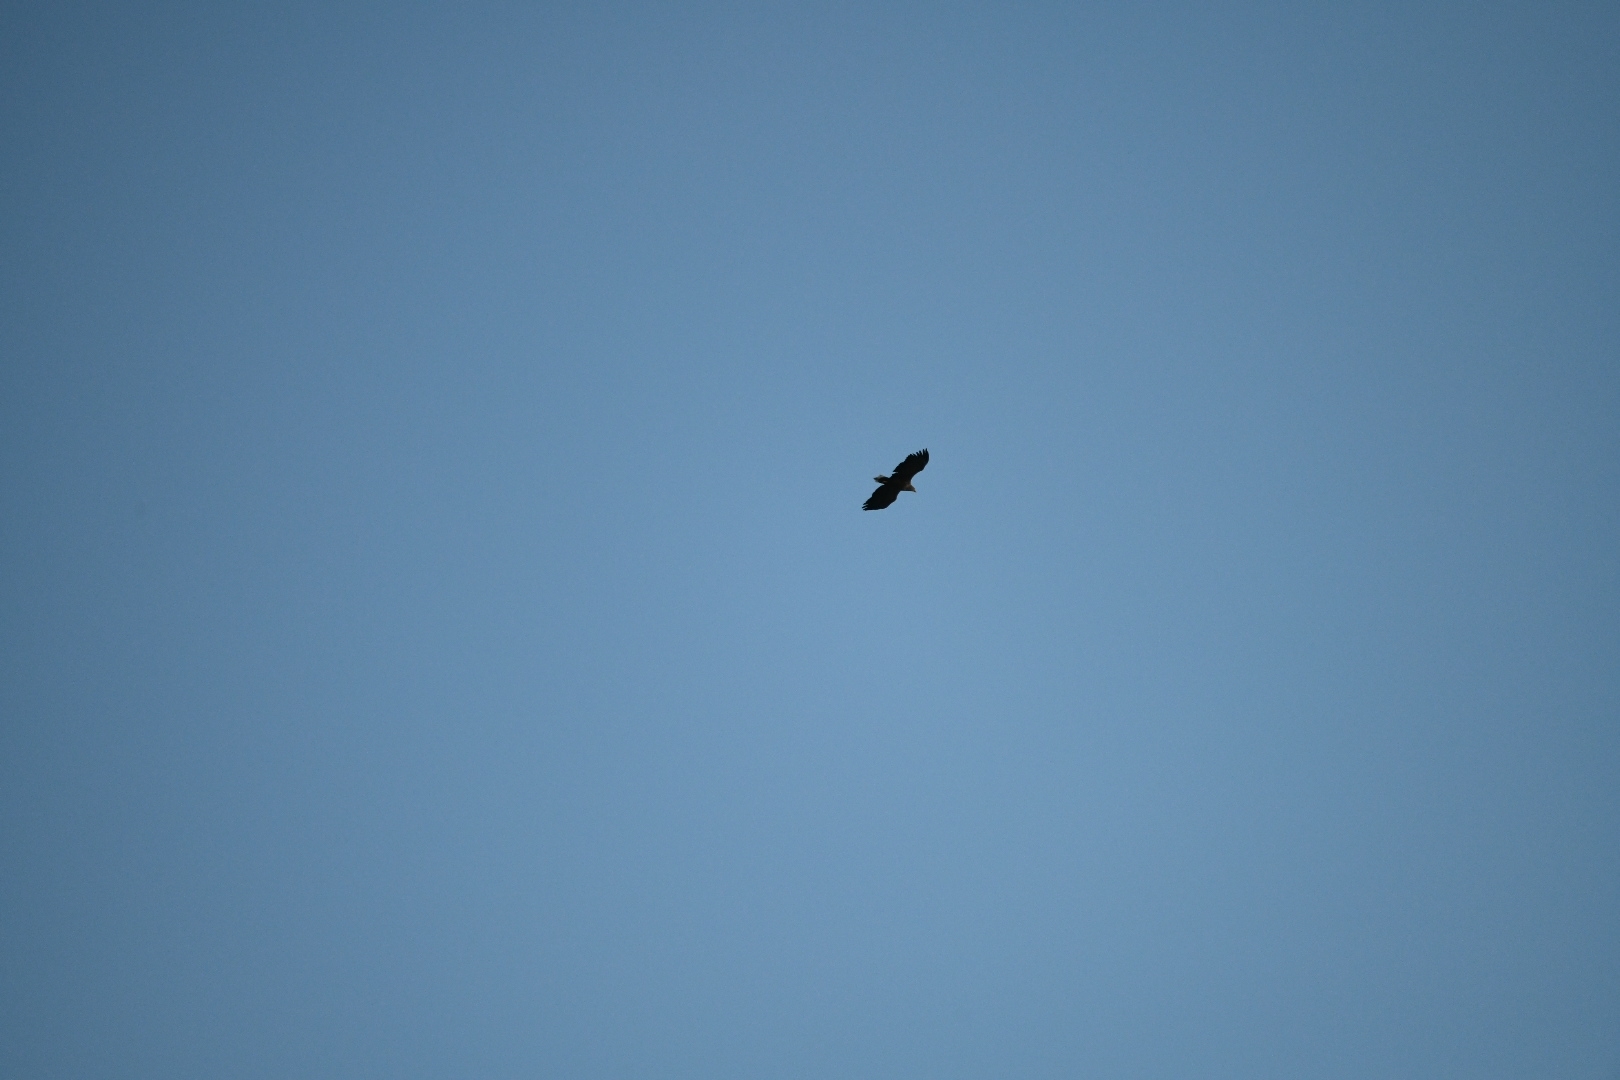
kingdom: Animalia
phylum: Chordata
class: Aves
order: Accipitriformes
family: Accipitridae
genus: Haliaeetus
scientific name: Haliaeetus albicilla
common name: White-tailed eagle
